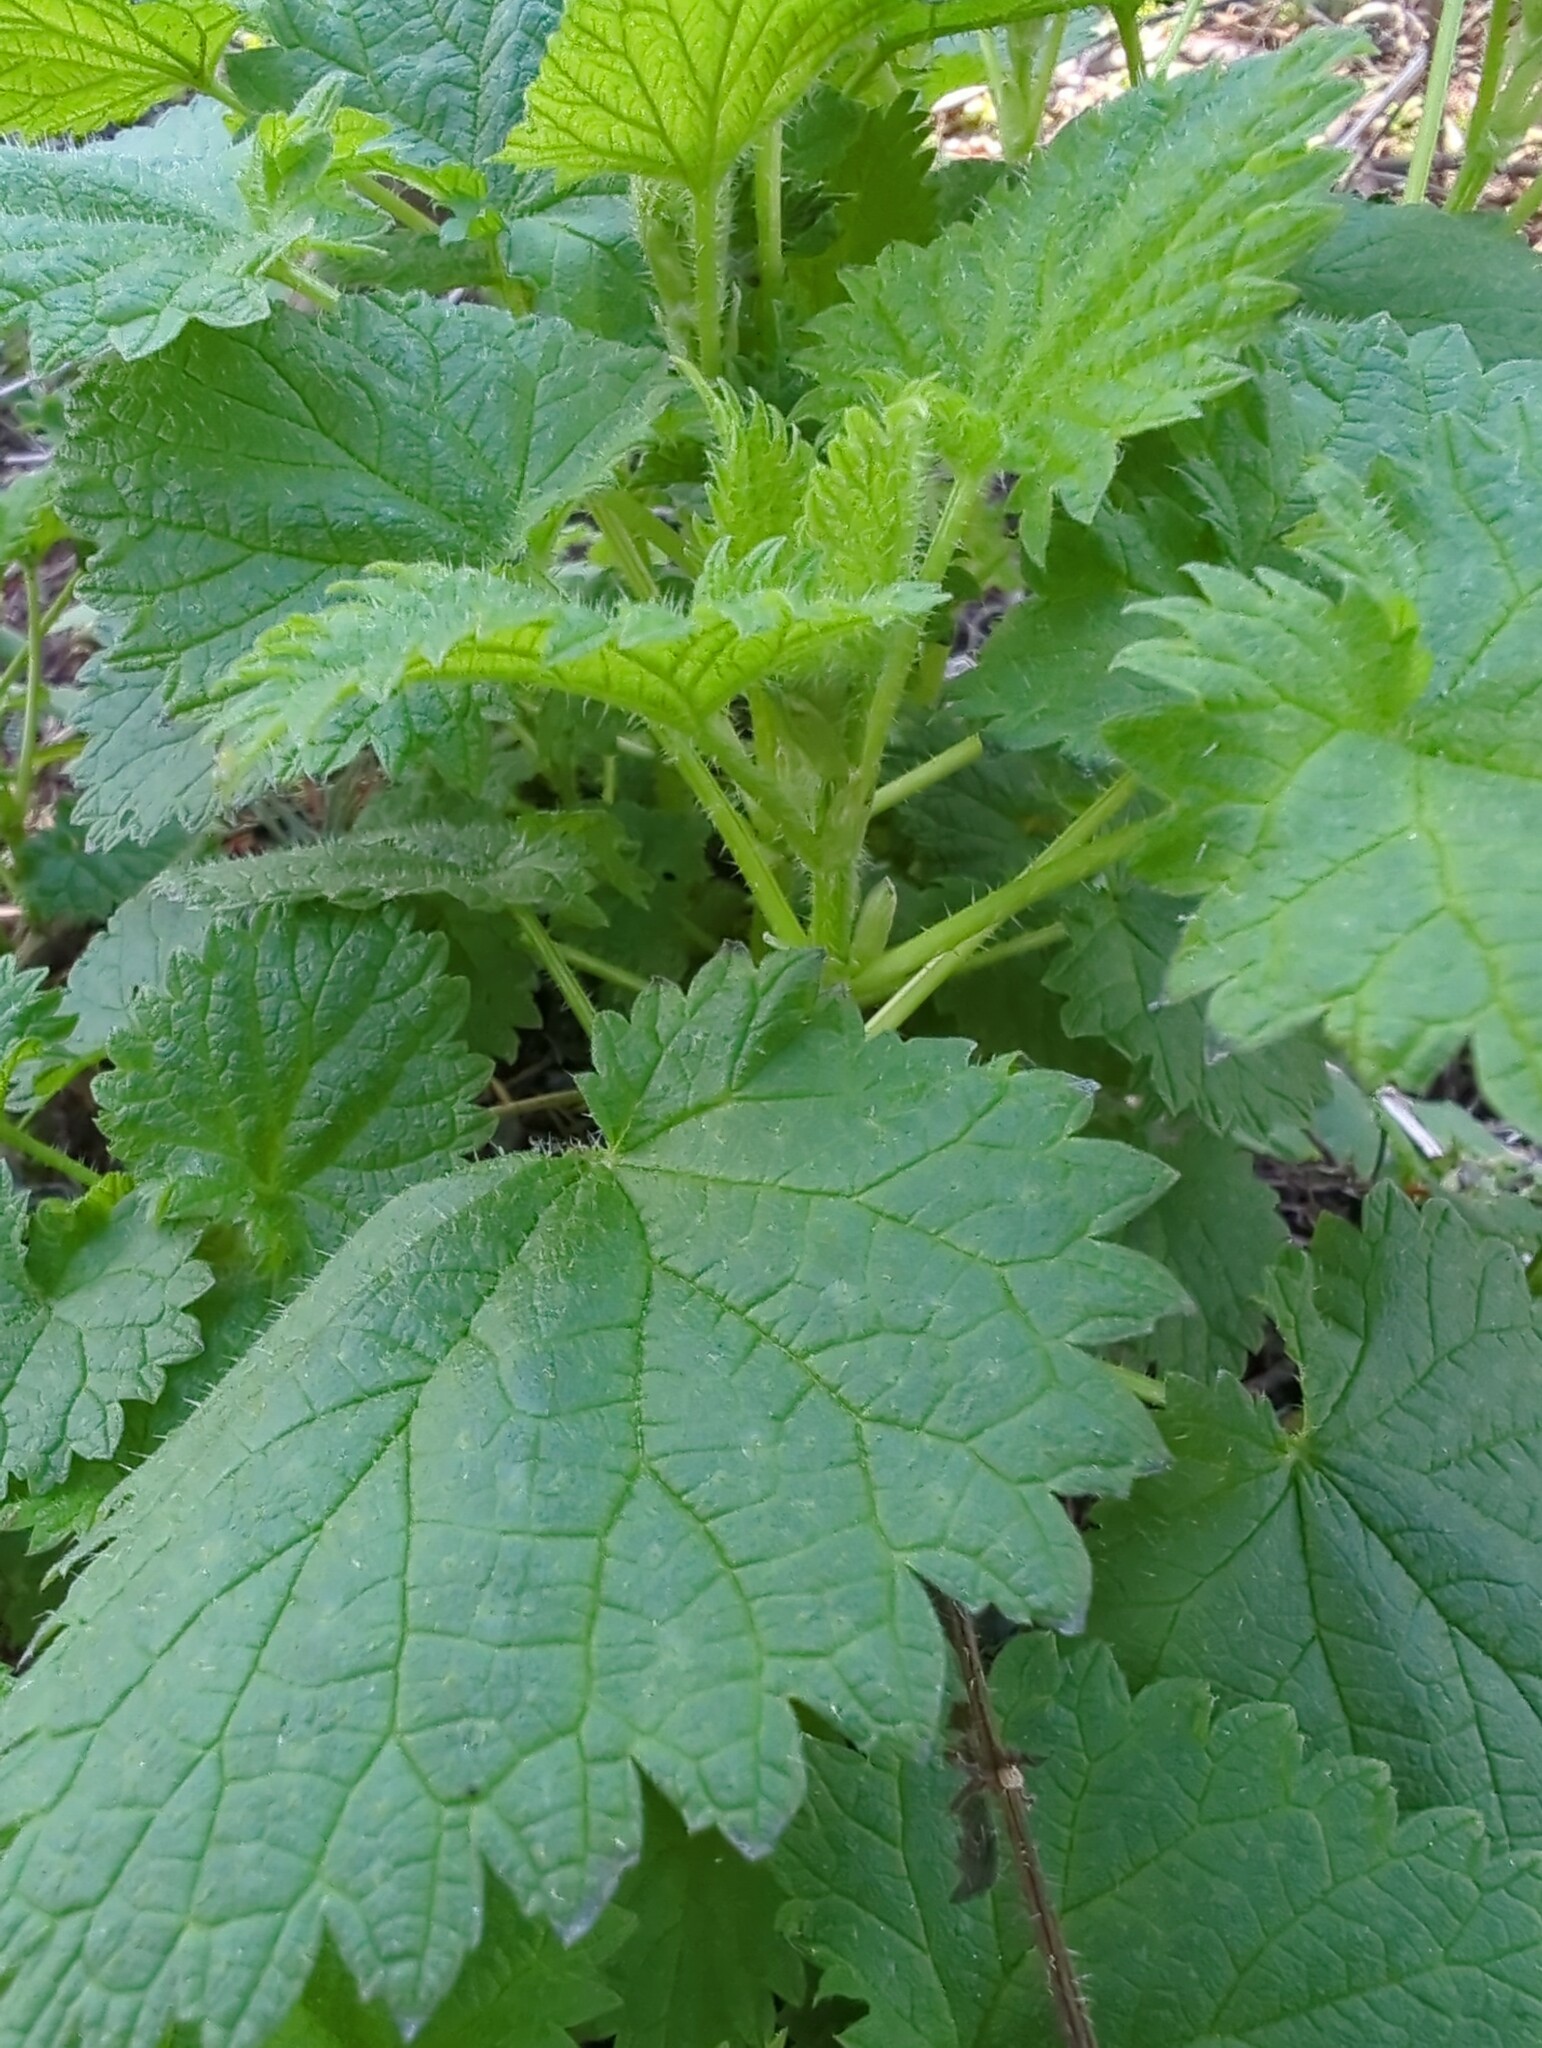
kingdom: Plantae
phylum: Tracheophyta
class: Magnoliopsida
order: Rosales
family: Urticaceae
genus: Urtica
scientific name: Urtica gracilis
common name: Slender stinging nettle
